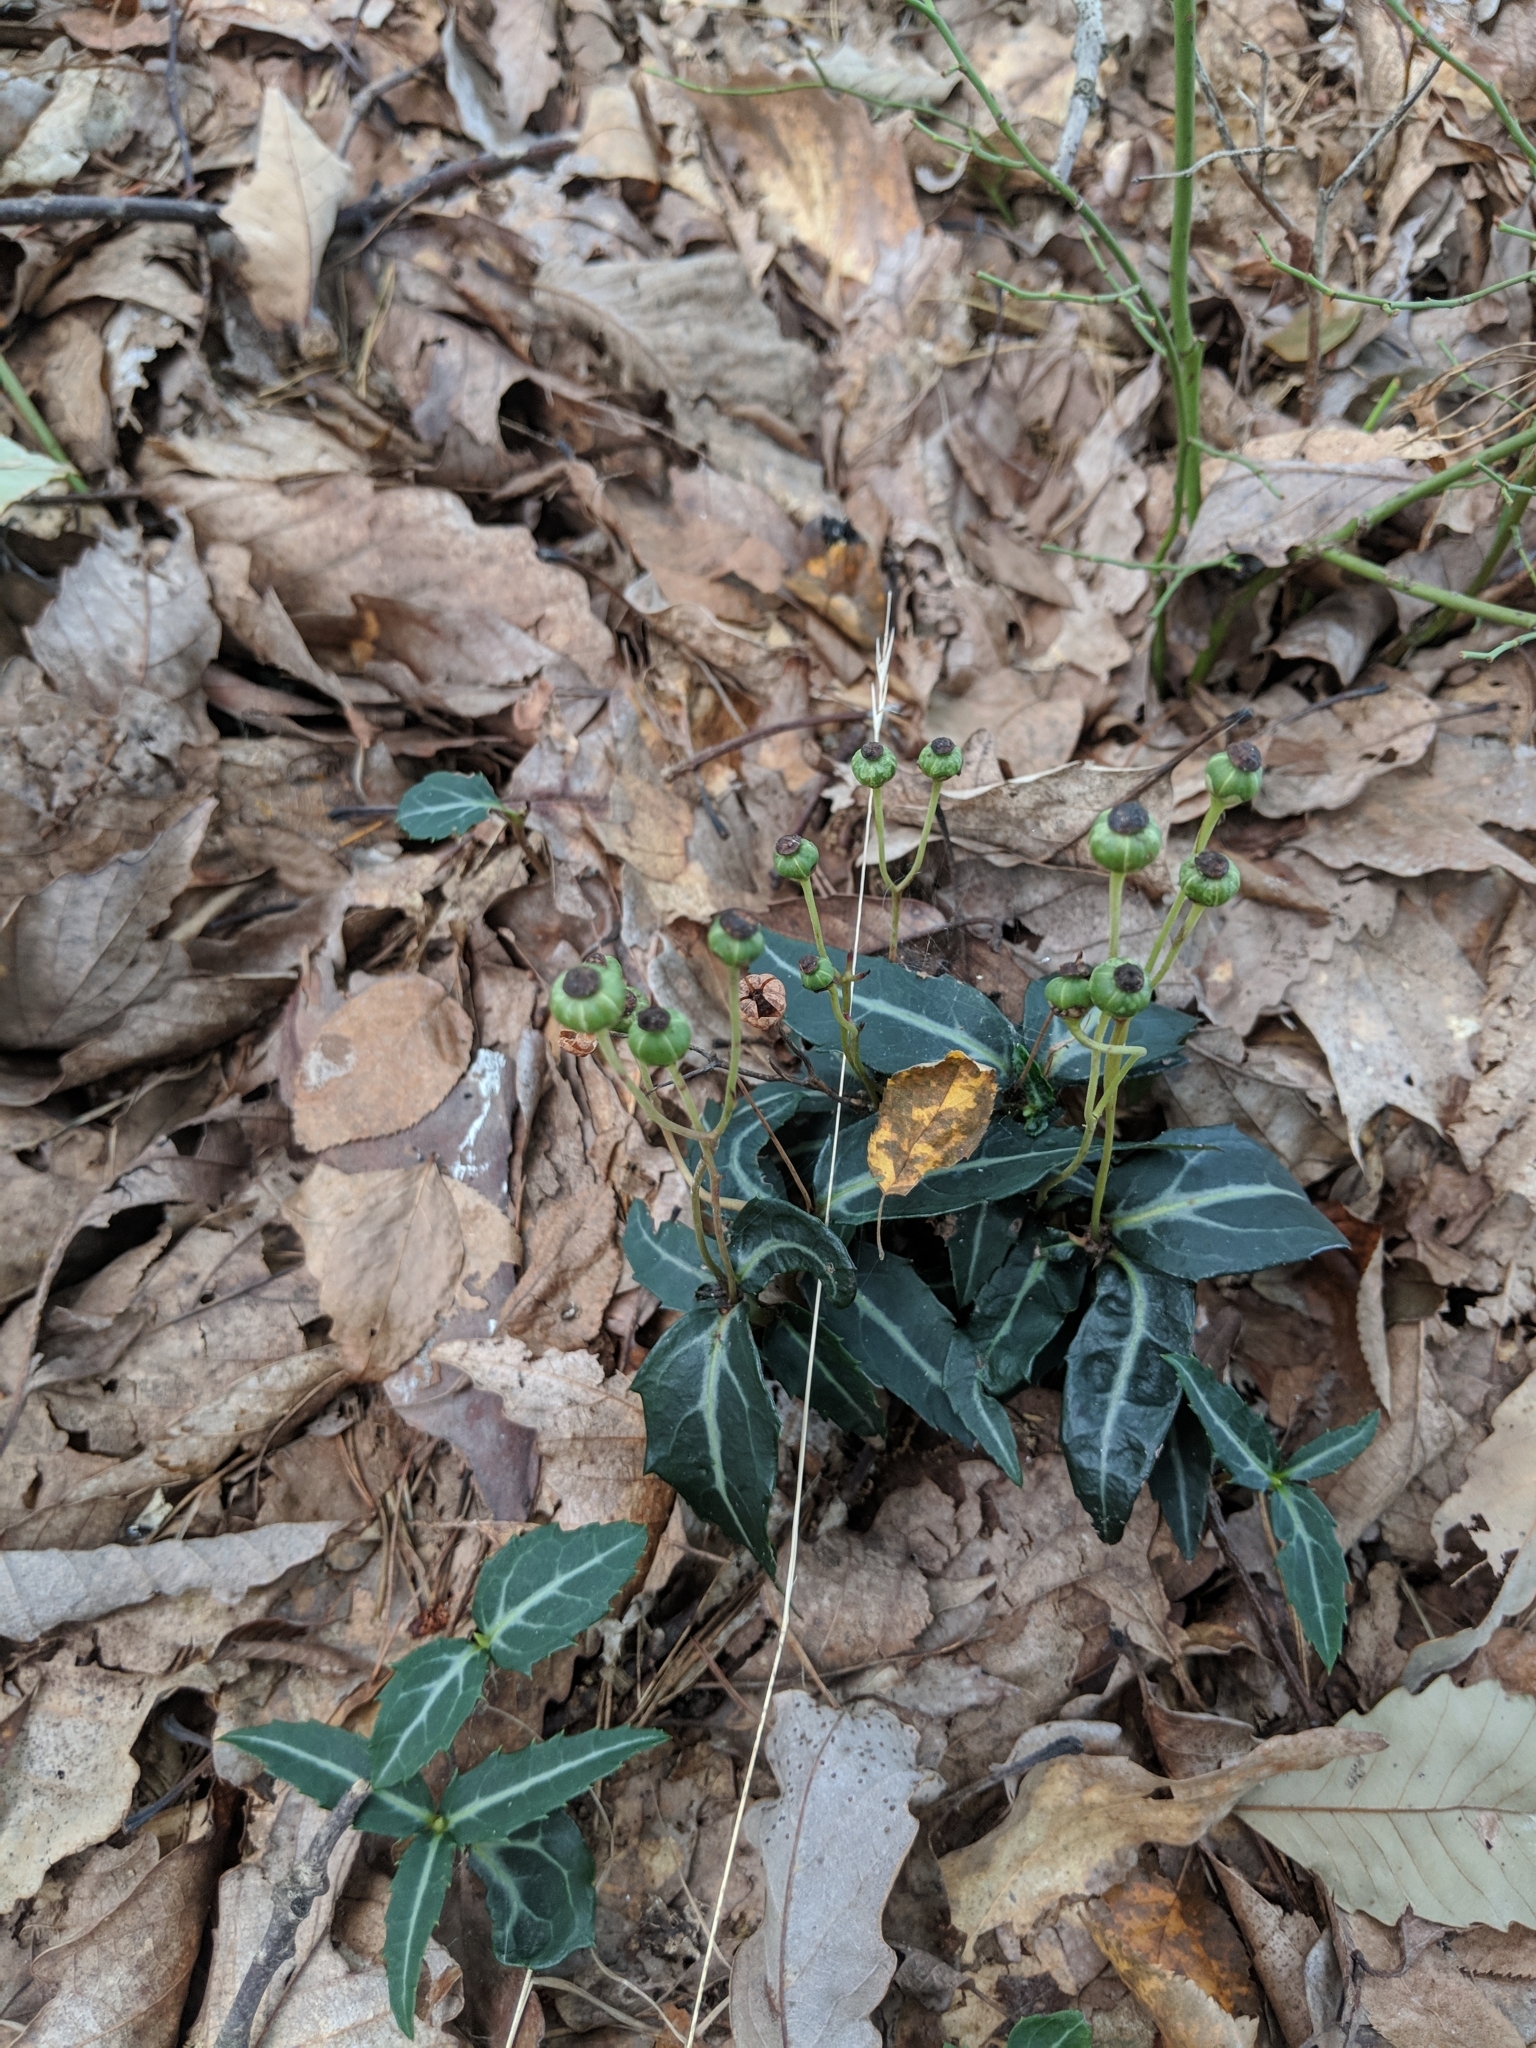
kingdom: Plantae
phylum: Tracheophyta
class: Magnoliopsida
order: Ericales
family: Ericaceae
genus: Chimaphila
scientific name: Chimaphila maculata
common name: Spotted pipsissewa
